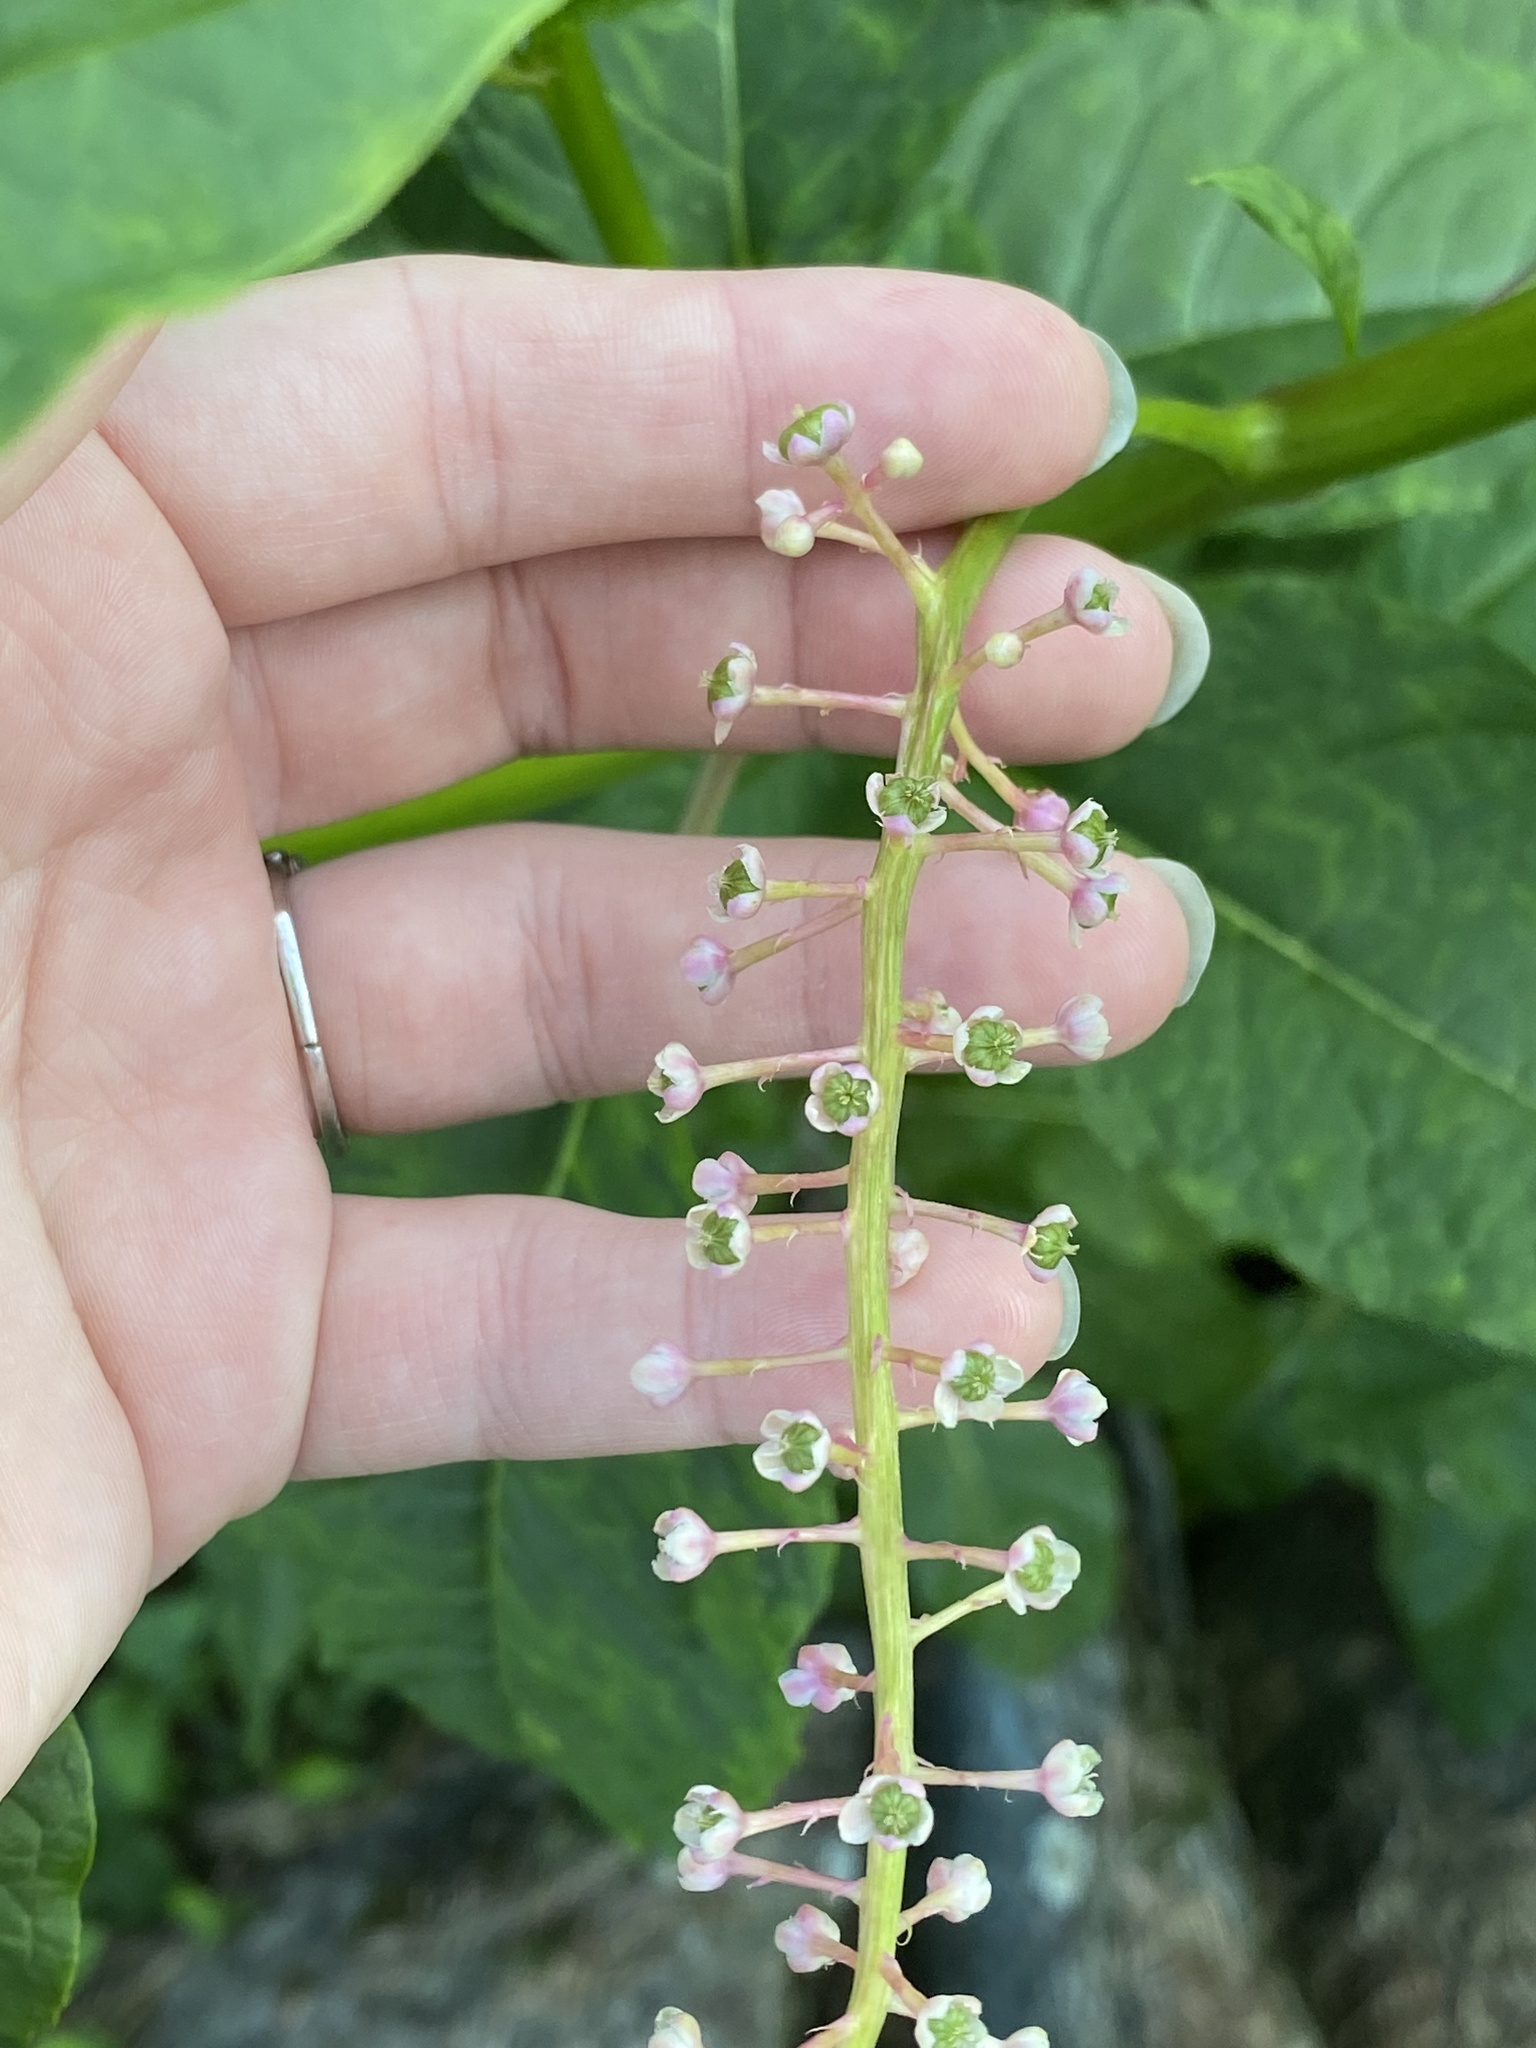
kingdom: Plantae
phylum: Tracheophyta
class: Magnoliopsida
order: Caryophyllales
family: Phytolaccaceae
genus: Phytolacca
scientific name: Phytolacca americana
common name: American pokeweed
